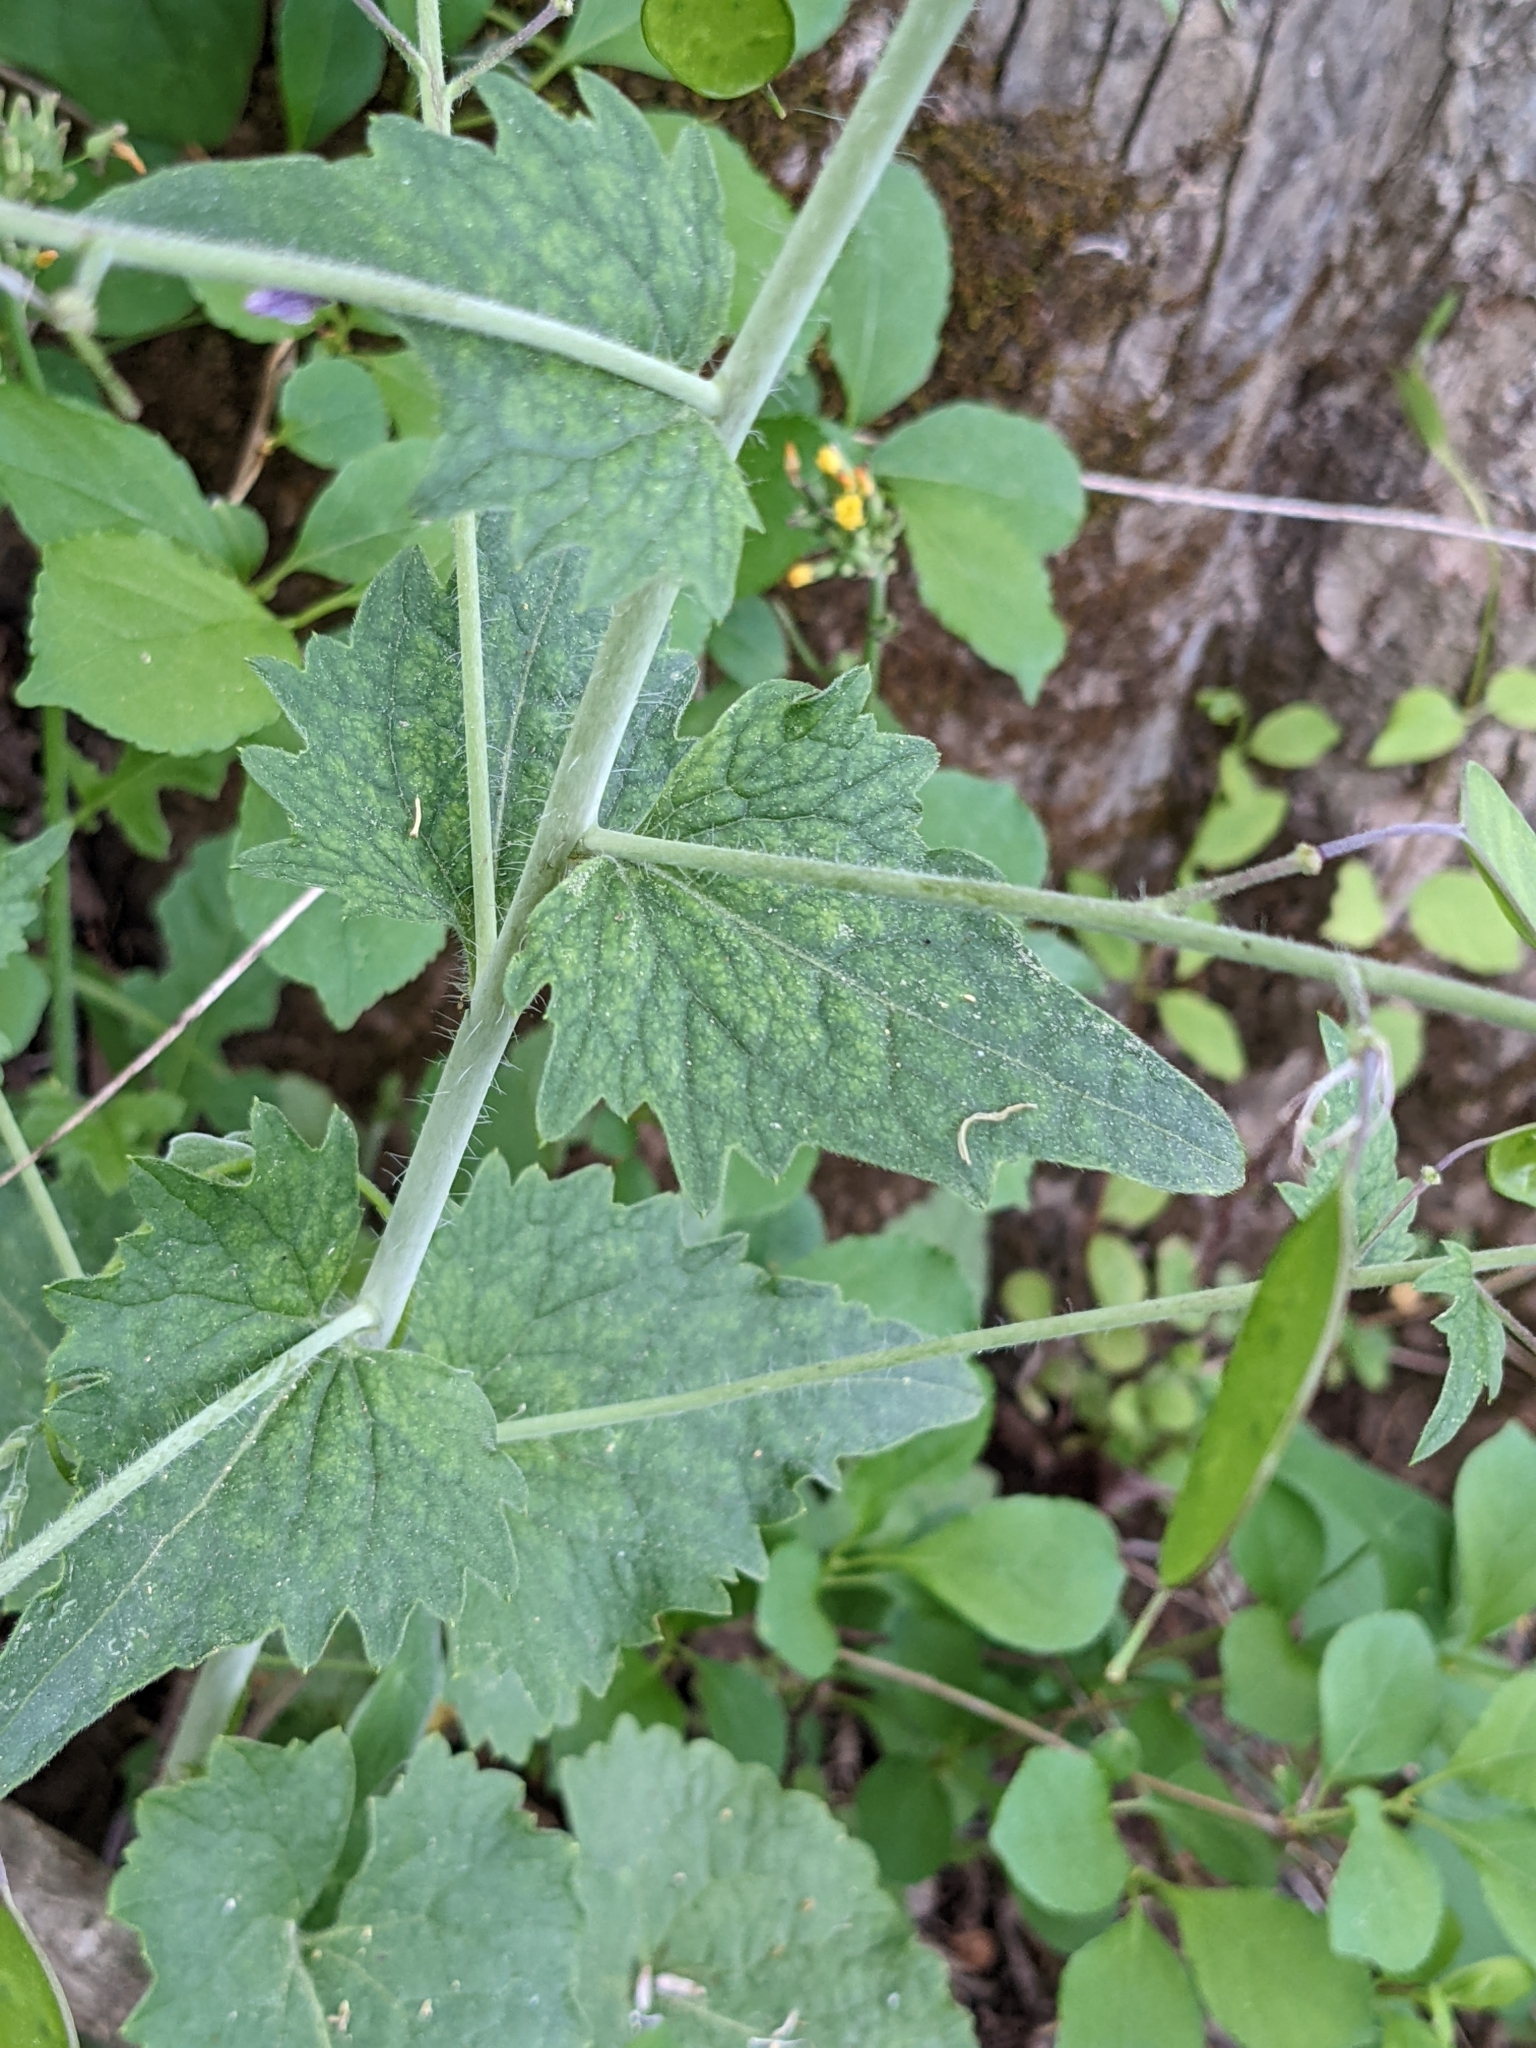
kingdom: Plantae
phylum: Tracheophyta
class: Magnoliopsida
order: Brassicales
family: Brassicaceae
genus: Lunaria
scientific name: Lunaria annua
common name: Honesty
